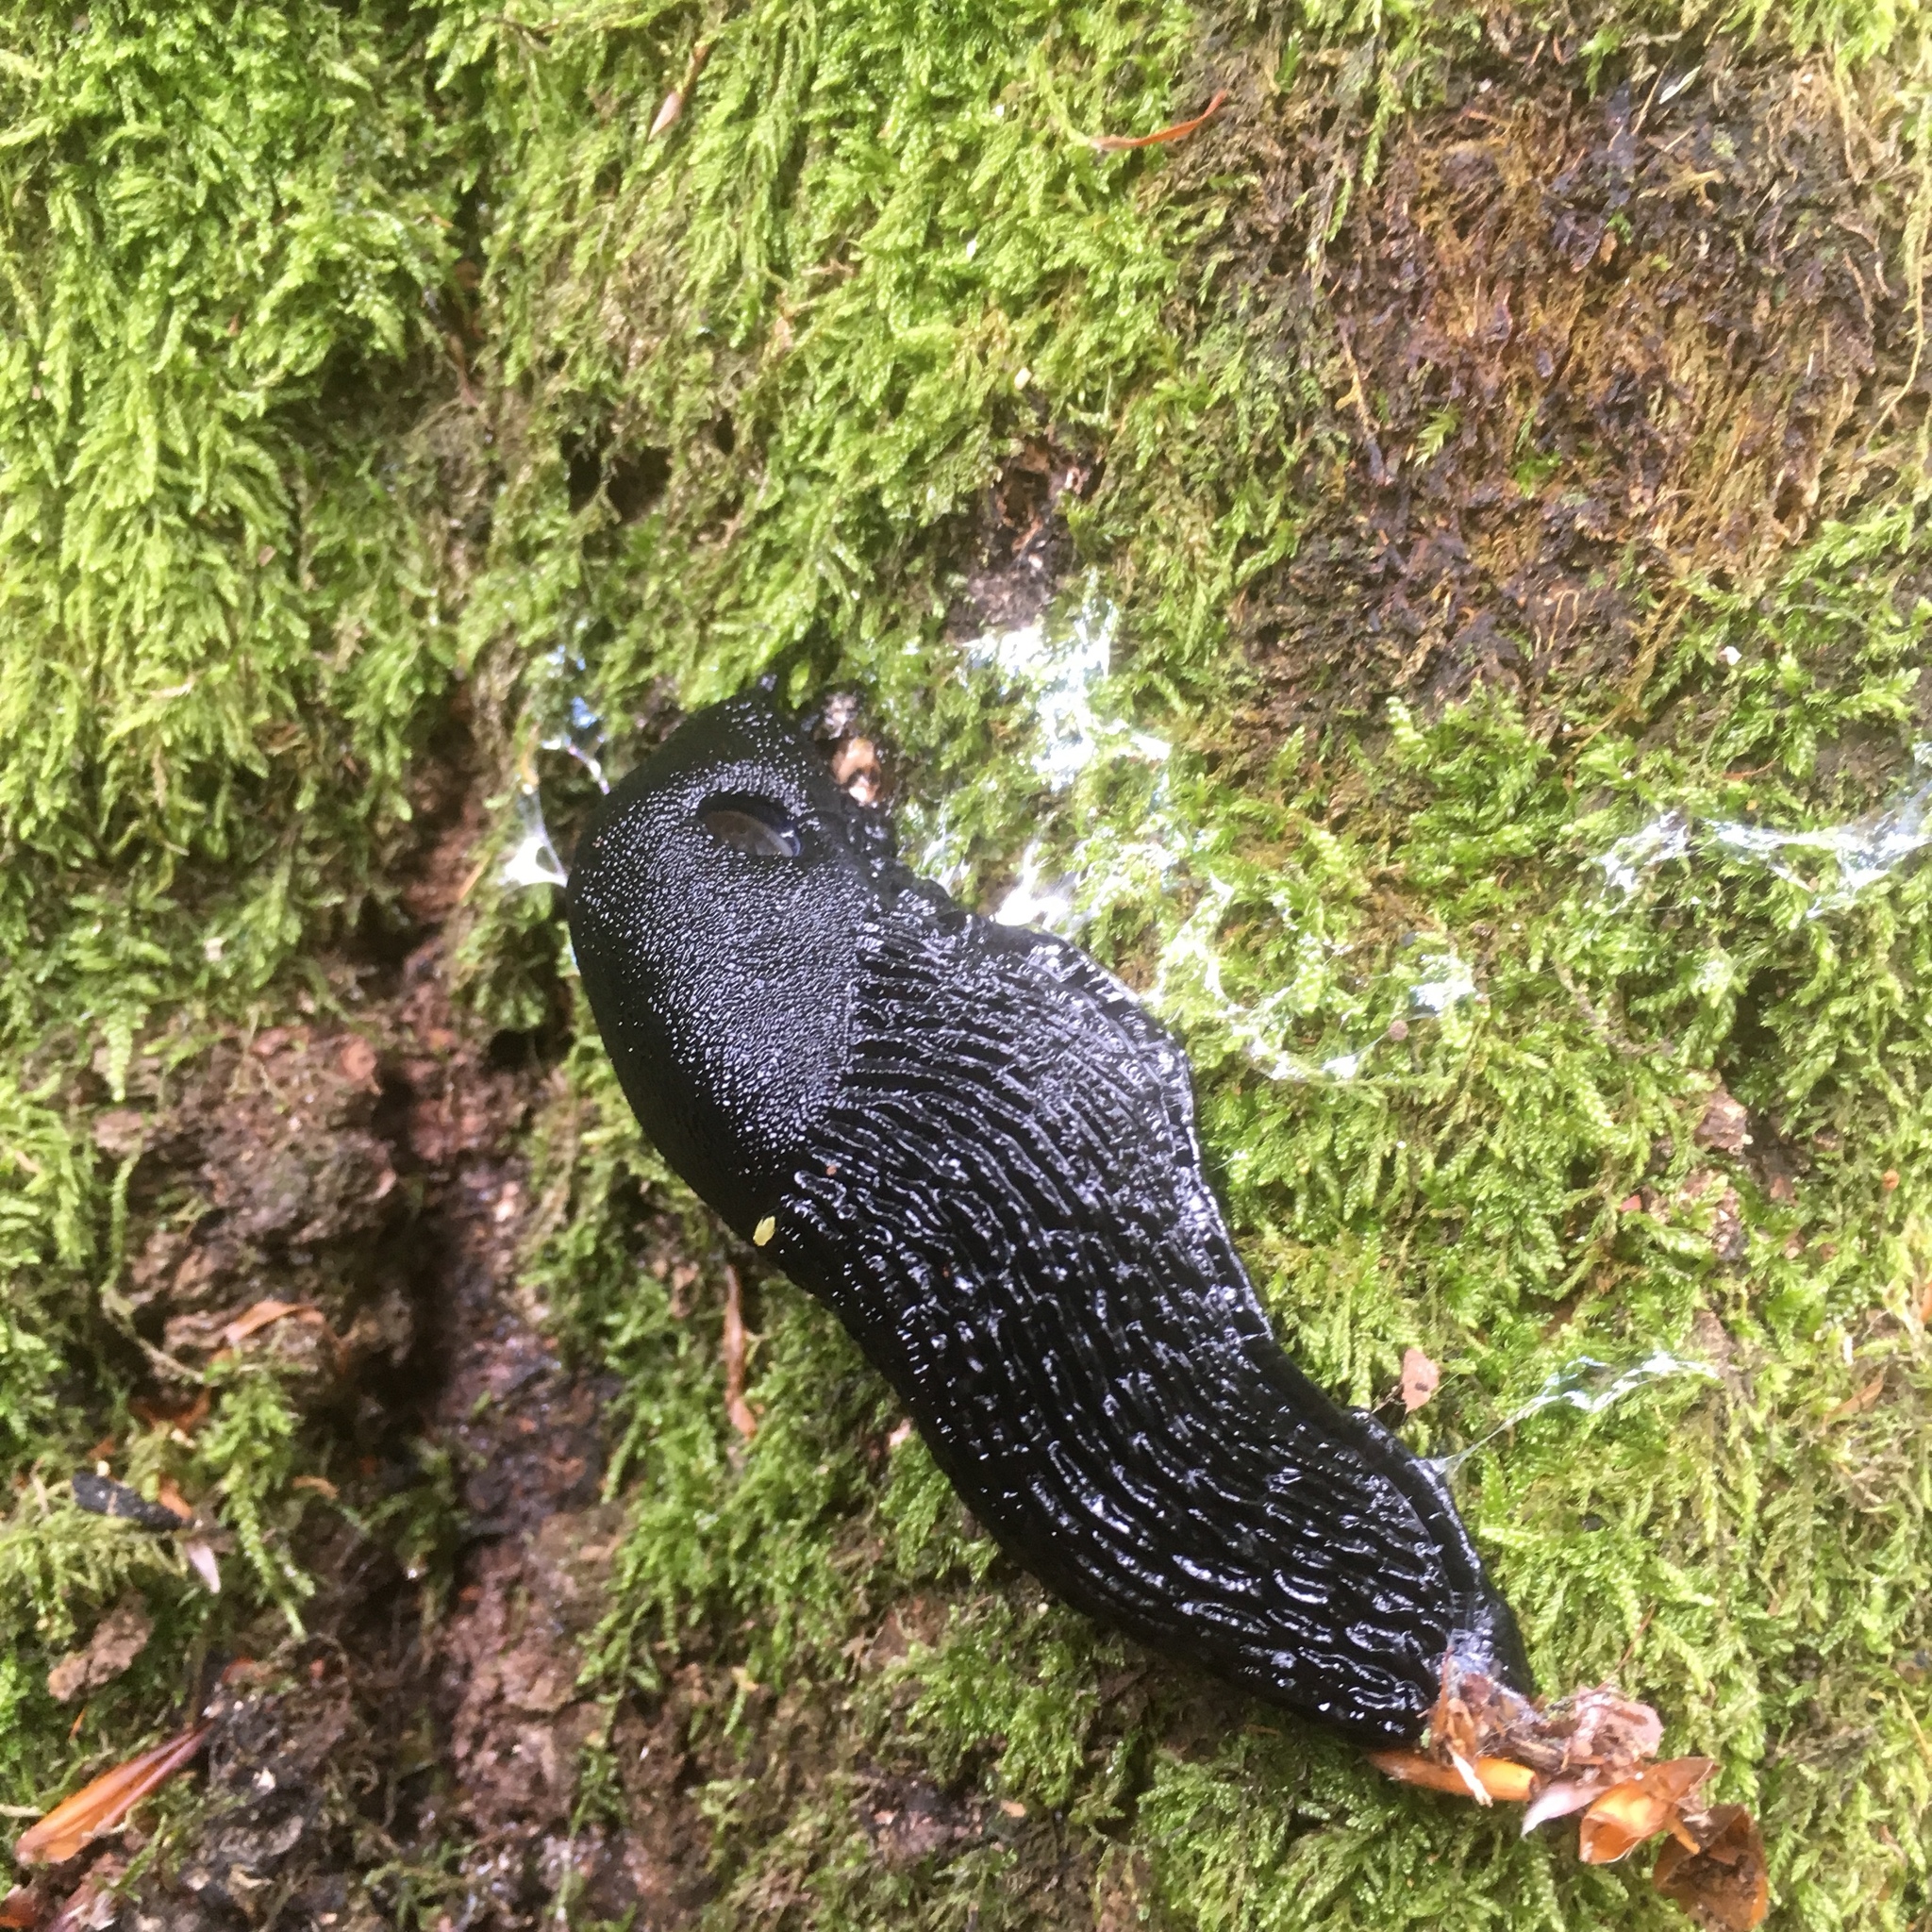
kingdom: Animalia
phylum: Mollusca
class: Gastropoda
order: Stylommatophora
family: Arionidae
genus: Arion
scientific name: Arion ater
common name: Black arion
